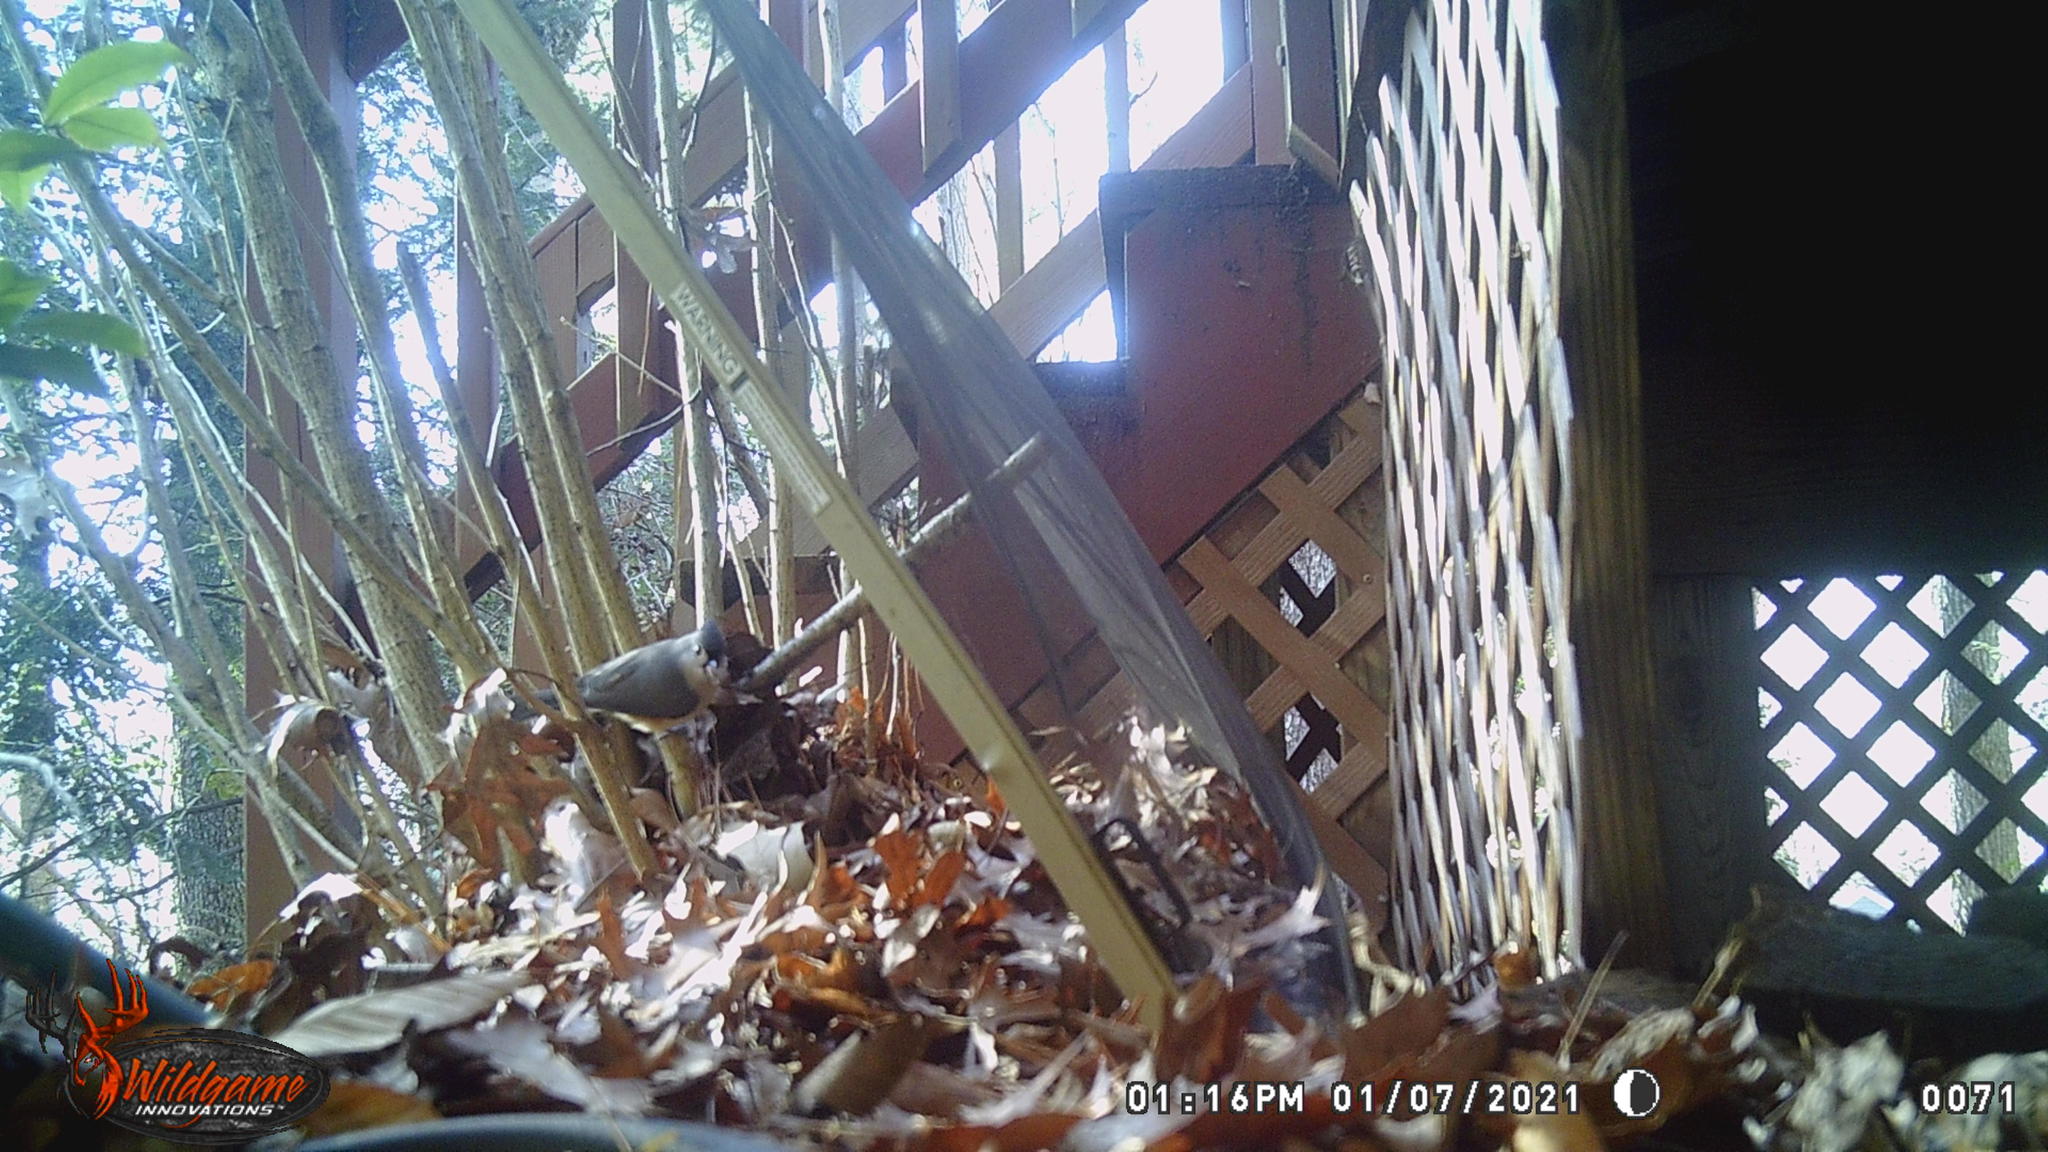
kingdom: Animalia
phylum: Chordata
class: Aves
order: Passeriformes
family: Paridae
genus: Baeolophus
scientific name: Baeolophus bicolor
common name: Tufted titmouse
